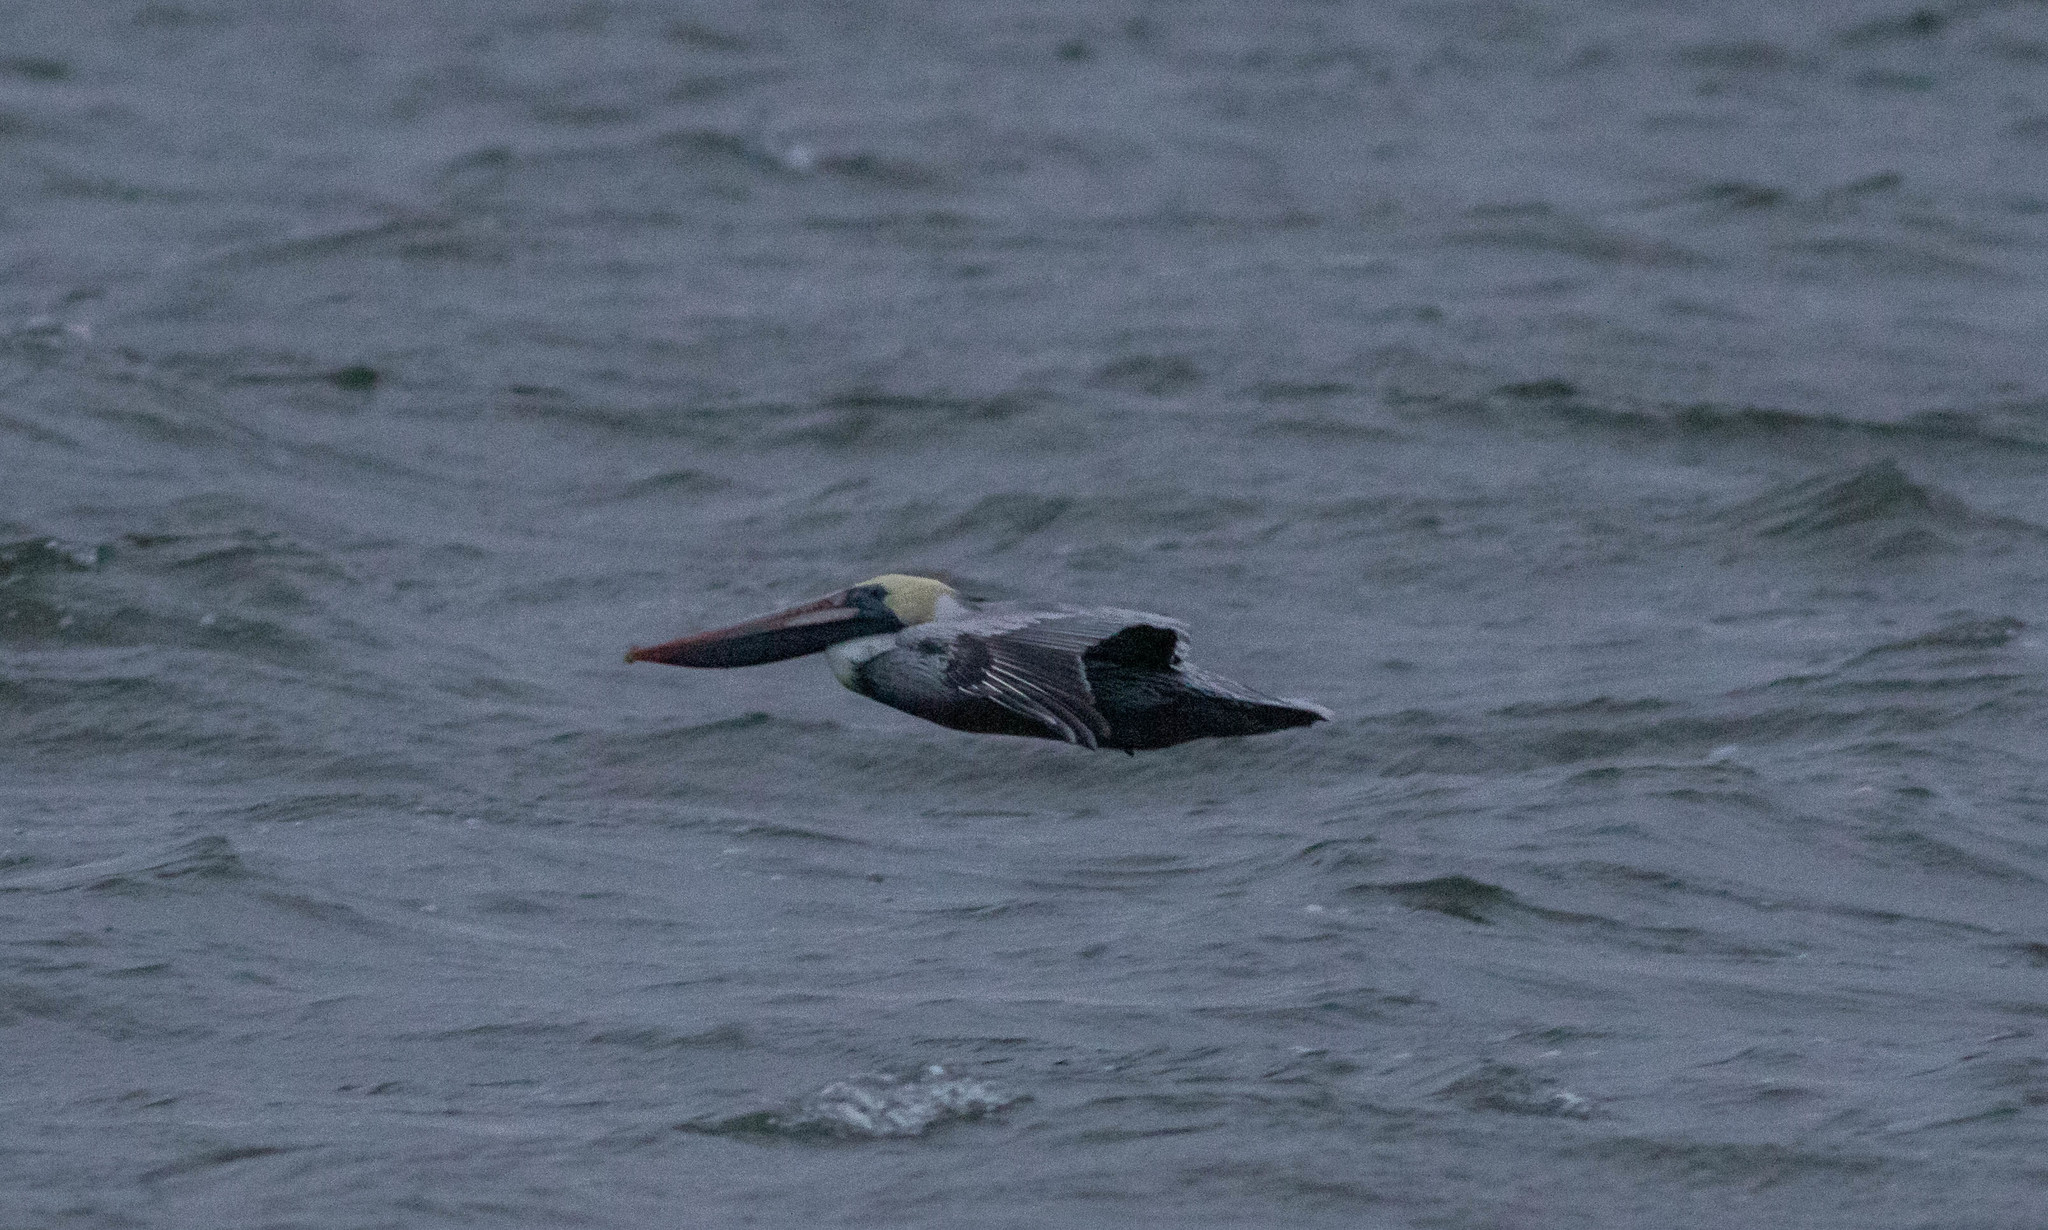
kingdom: Animalia
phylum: Chordata
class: Aves
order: Pelecaniformes
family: Pelecanidae
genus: Pelecanus
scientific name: Pelecanus occidentalis
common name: Brown pelican
